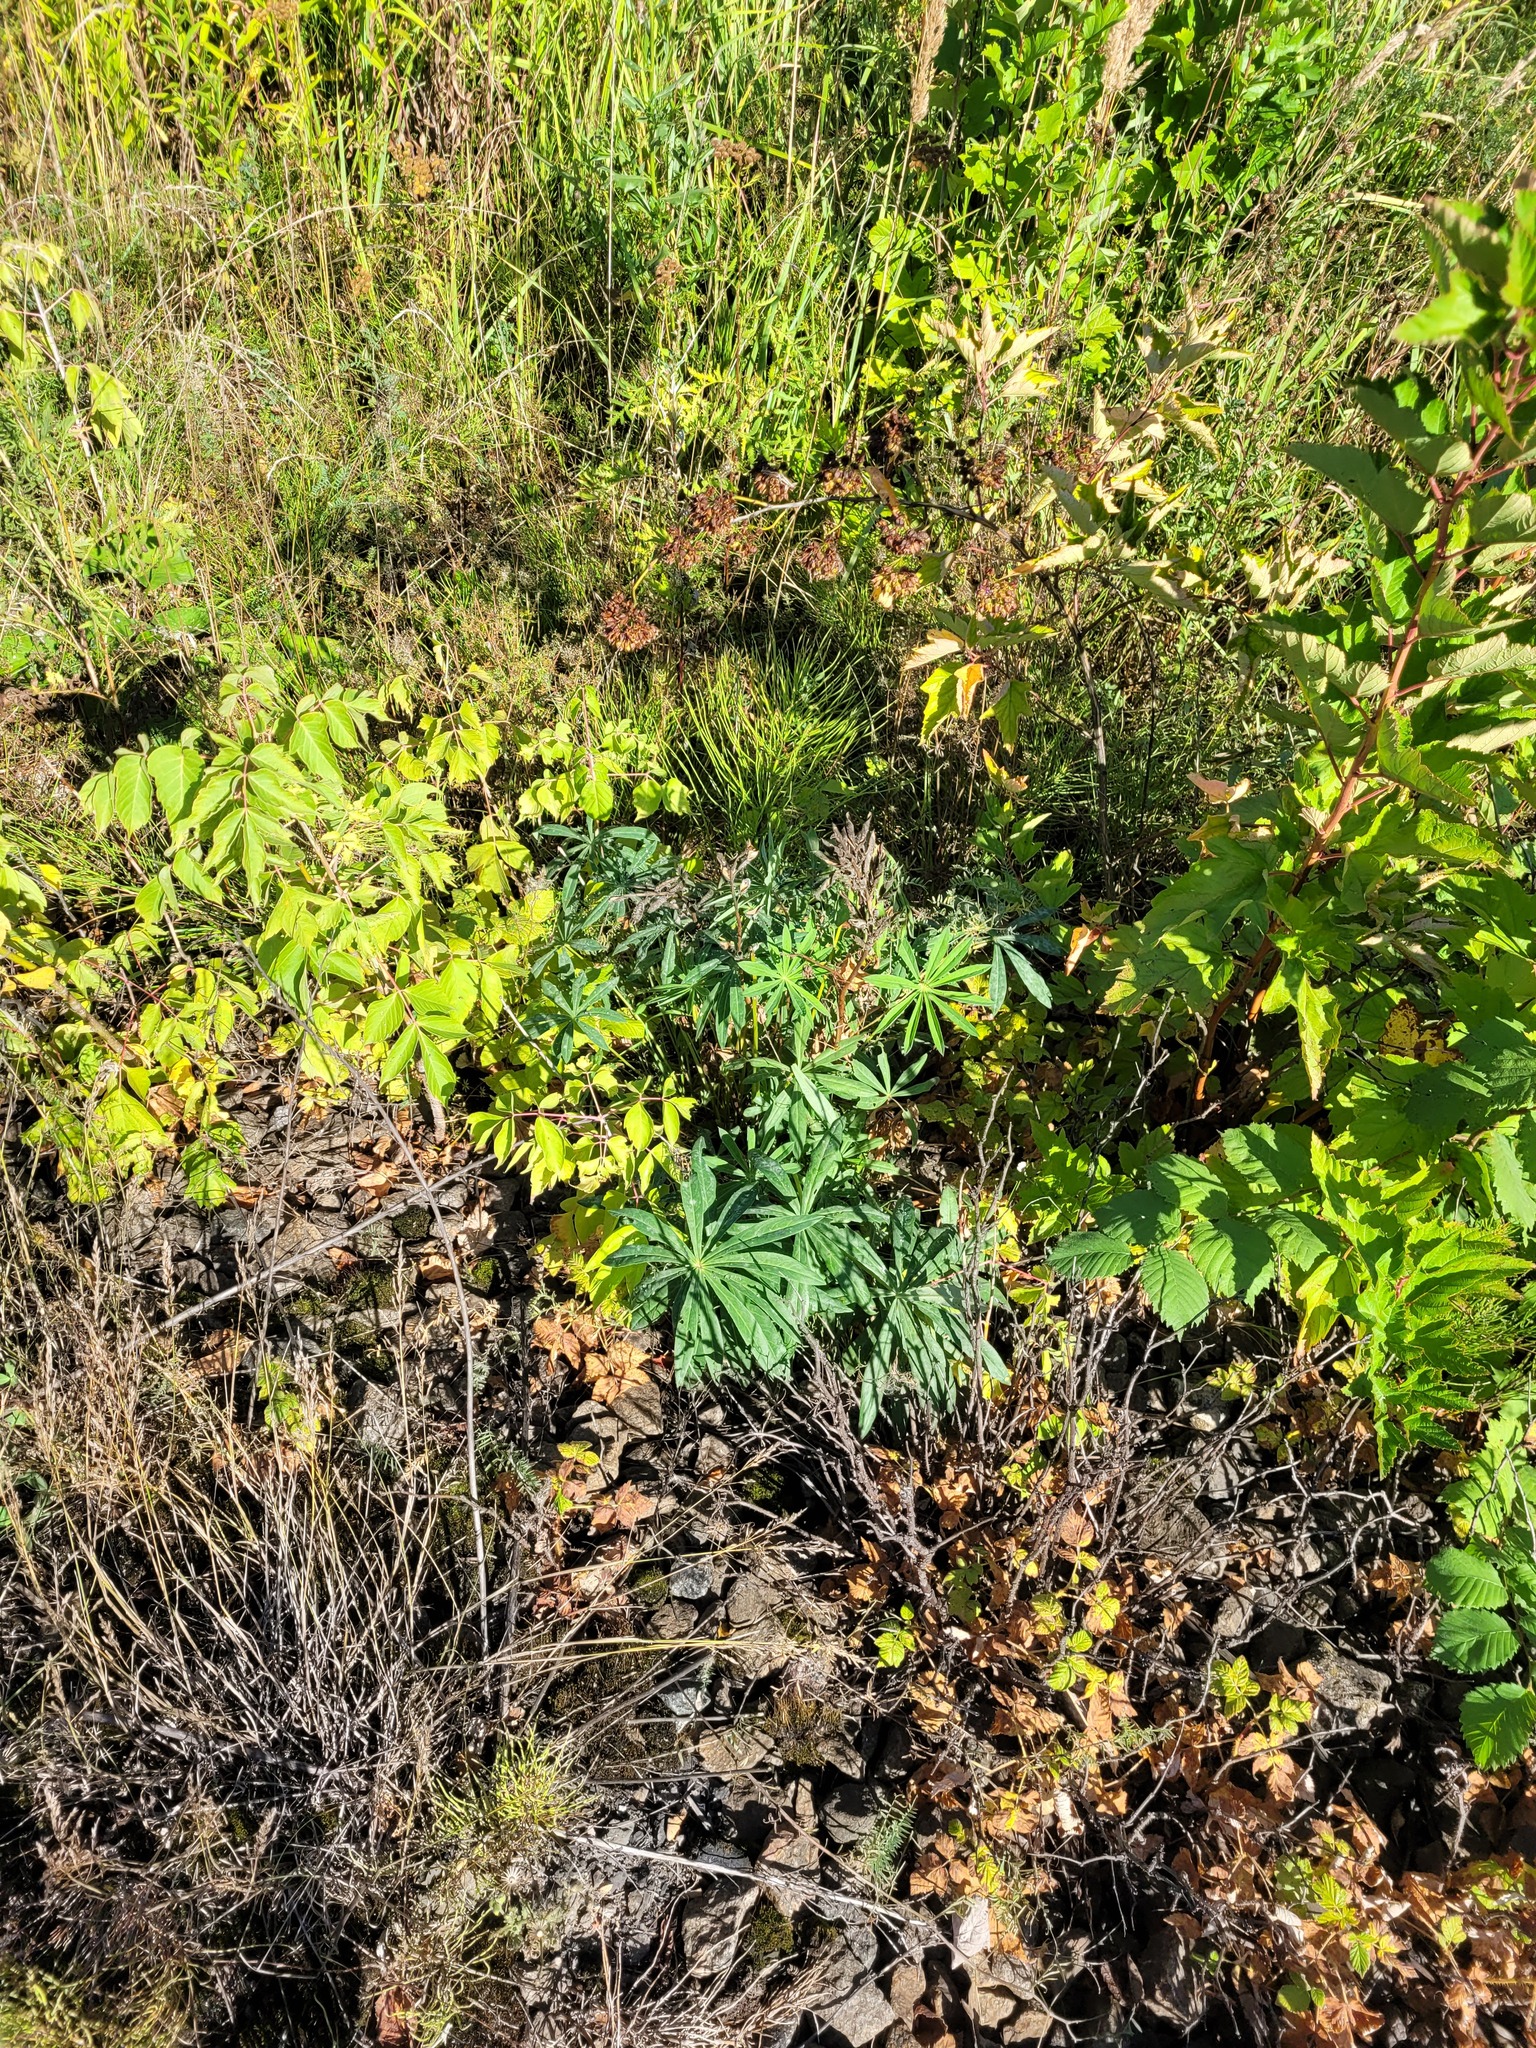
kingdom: Plantae
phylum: Tracheophyta
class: Magnoliopsida
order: Fabales
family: Fabaceae
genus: Lupinus
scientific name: Lupinus polyphyllus
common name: Garden lupin
